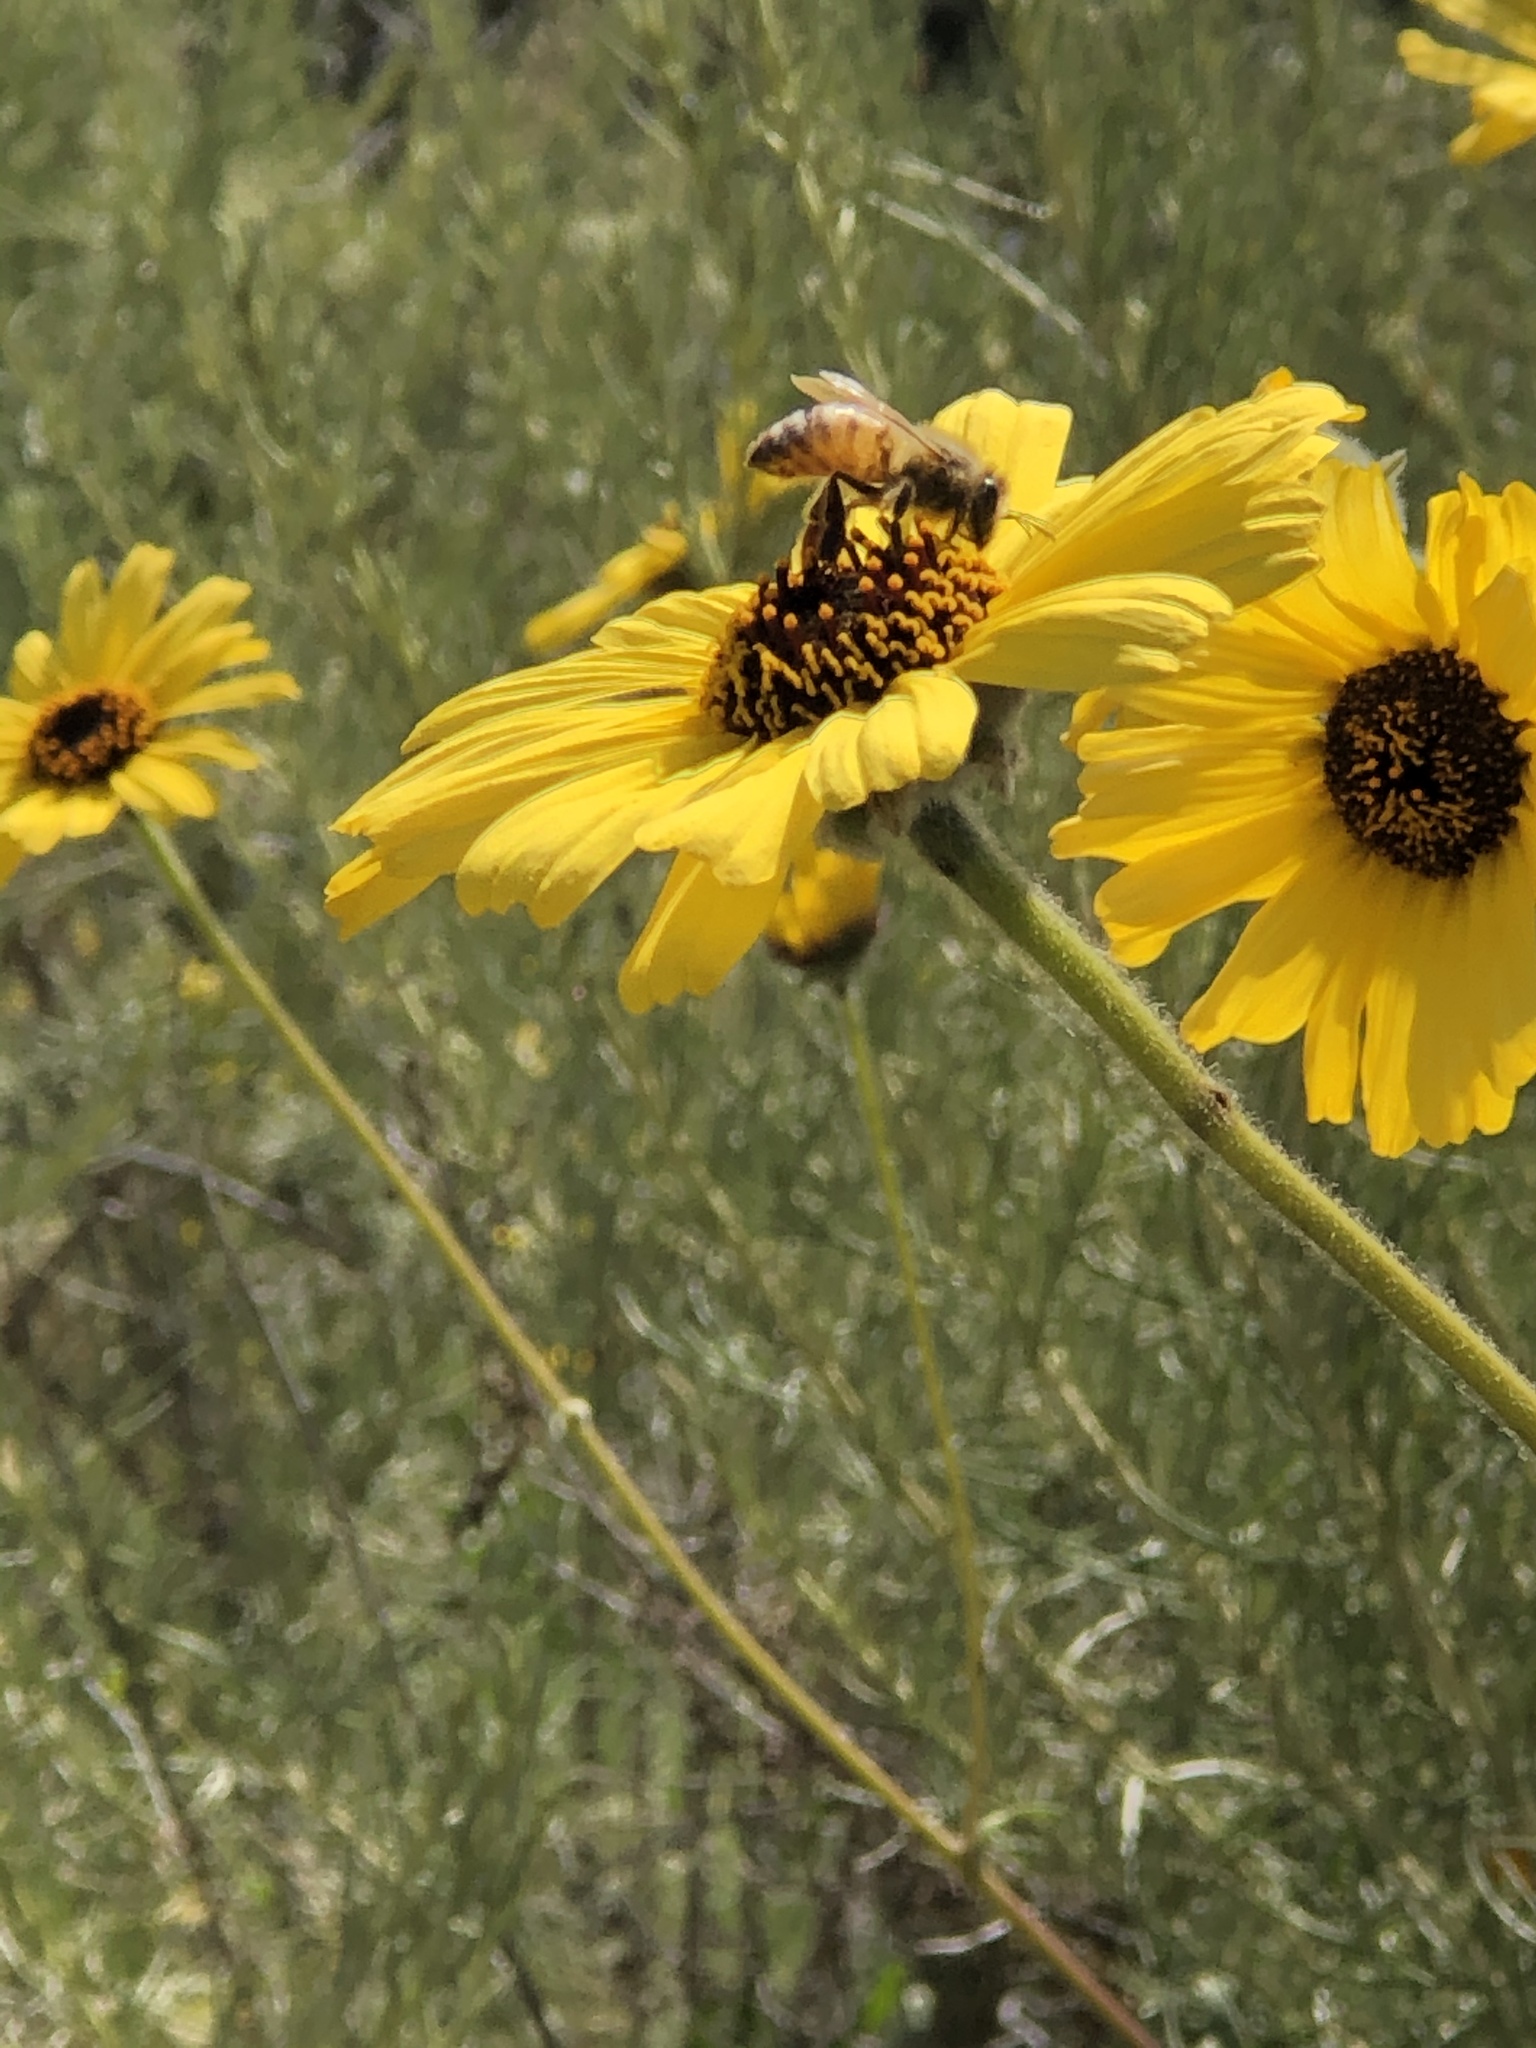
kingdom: Animalia
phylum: Arthropoda
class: Insecta
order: Hymenoptera
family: Apidae
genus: Apis
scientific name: Apis mellifera
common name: Honey bee
